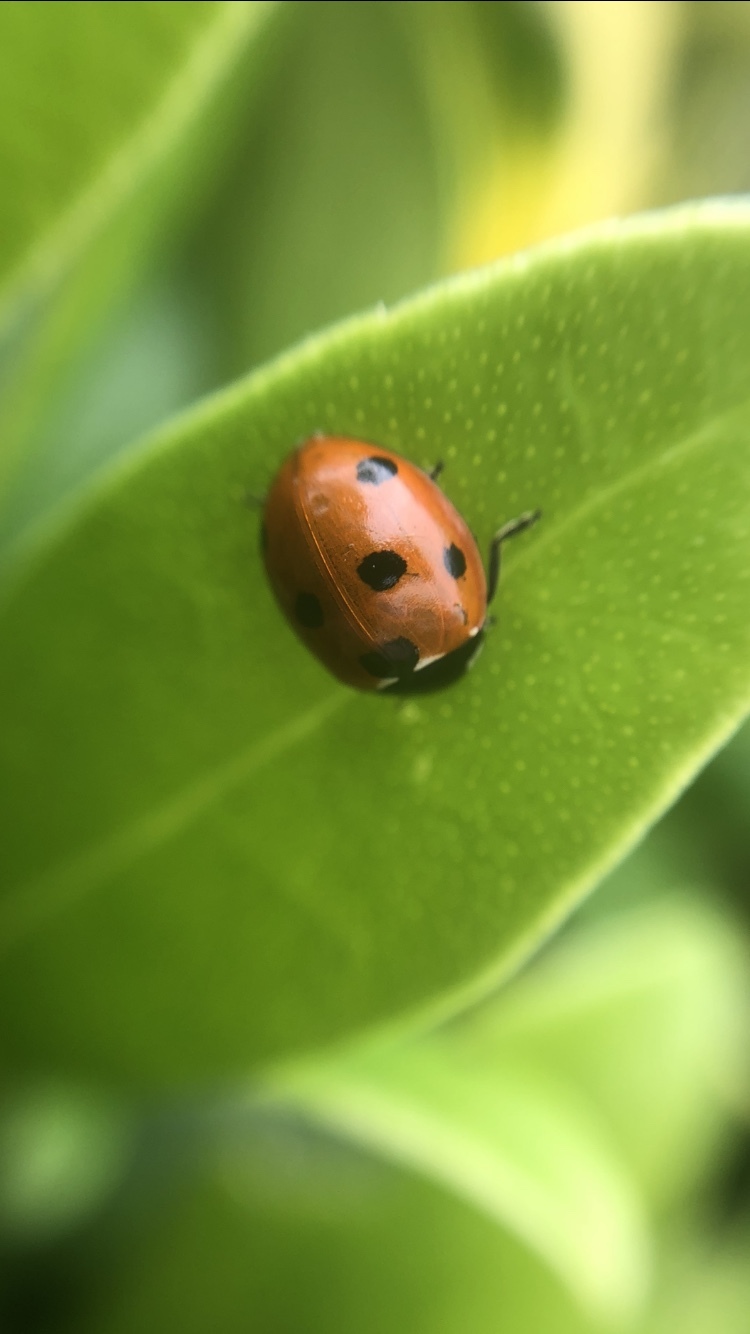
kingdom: Animalia
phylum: Arthropoda
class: Insecta
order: Coleoptera
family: Coccinellidae
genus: Coccinella
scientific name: Coccinella septempunctata
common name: Sevenspotted lady beetle
